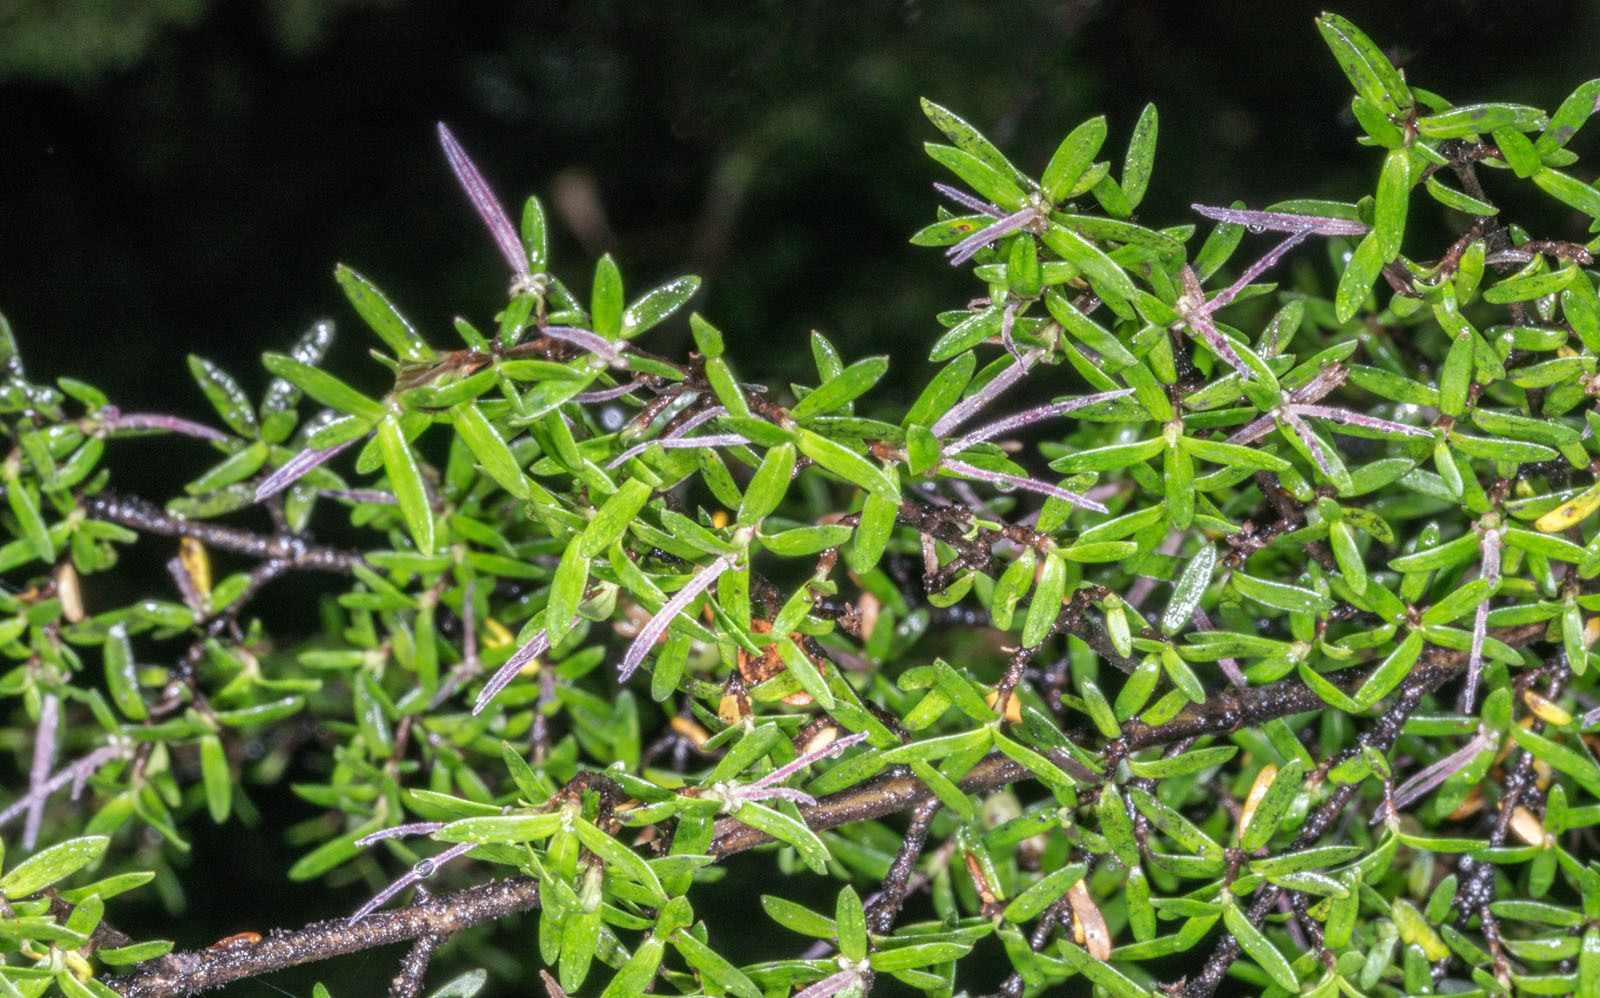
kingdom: Plantae
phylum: Tracheophyta
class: Magnoliopsida
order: Gentianales
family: Rubiaceae
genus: Coprosma
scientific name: Coprosma microcarpa
